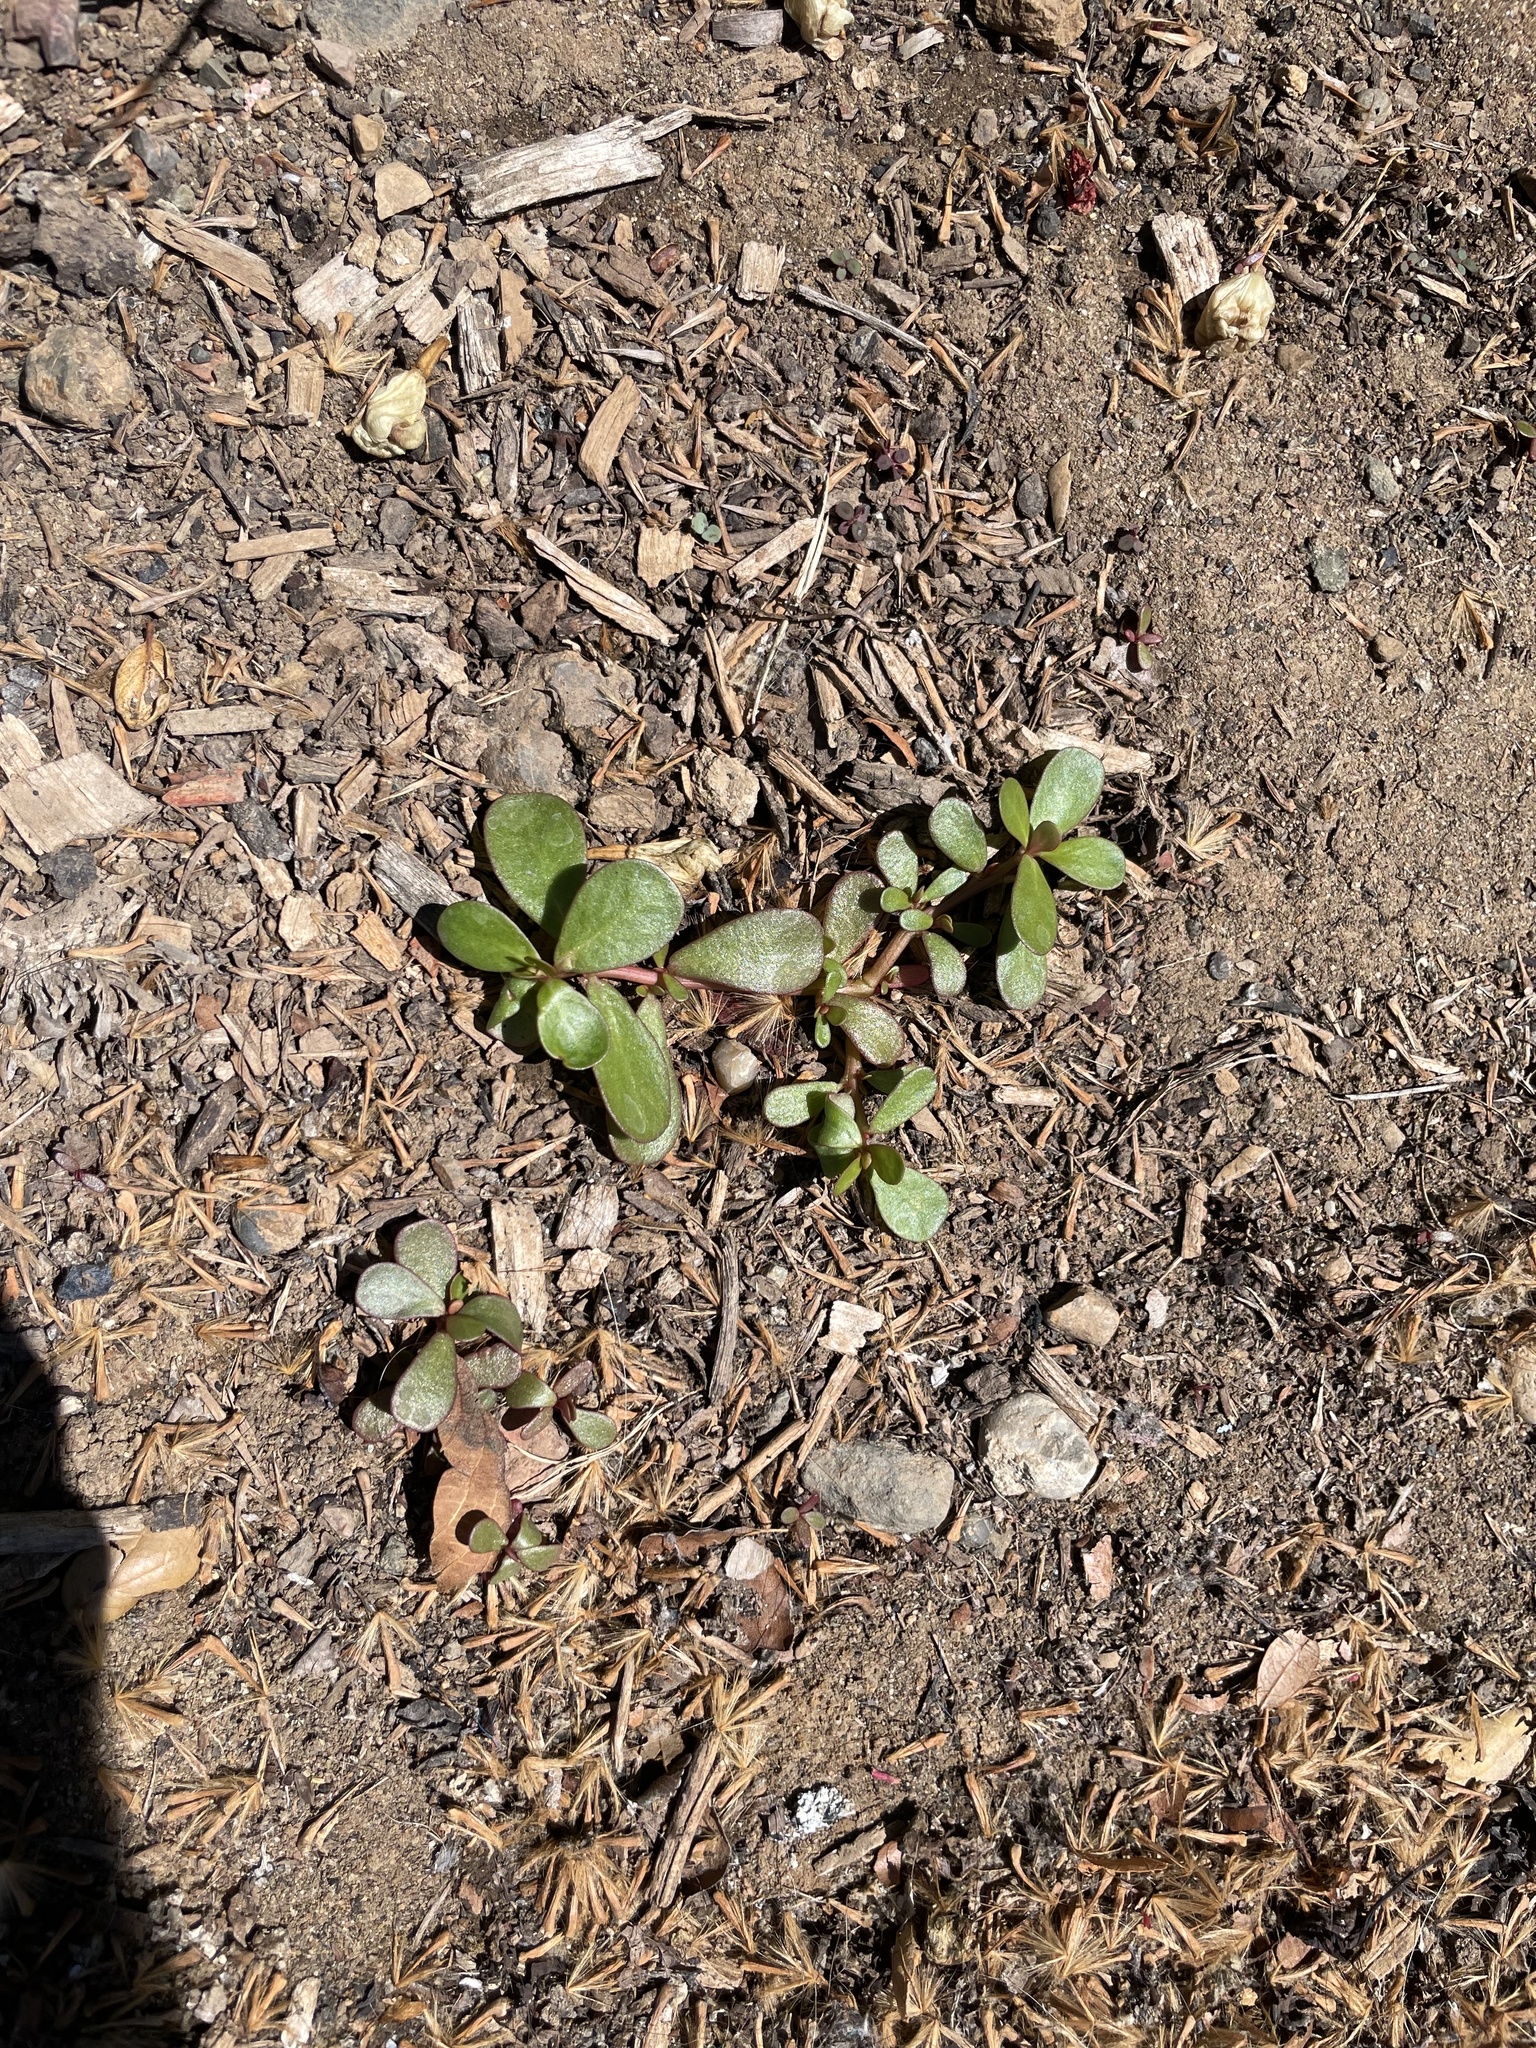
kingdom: Plantae
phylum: Tracheophyta
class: Magnoliopsida
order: Caryophyllales
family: Portulacaceae
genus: Portulaca
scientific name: Portulaca oleracea
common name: Common purslane
